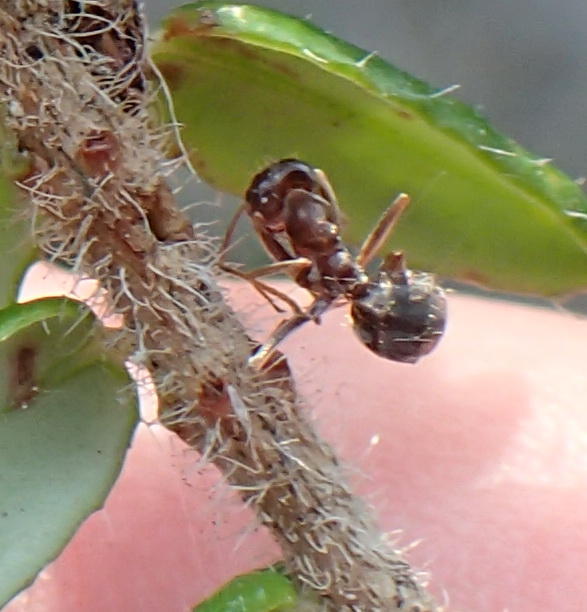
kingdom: Animalia
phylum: Arthropoda
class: Insecta
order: Hymenoptera
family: Formicidae
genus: Anoplolepis
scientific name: Anoplolepis steingroeveri
